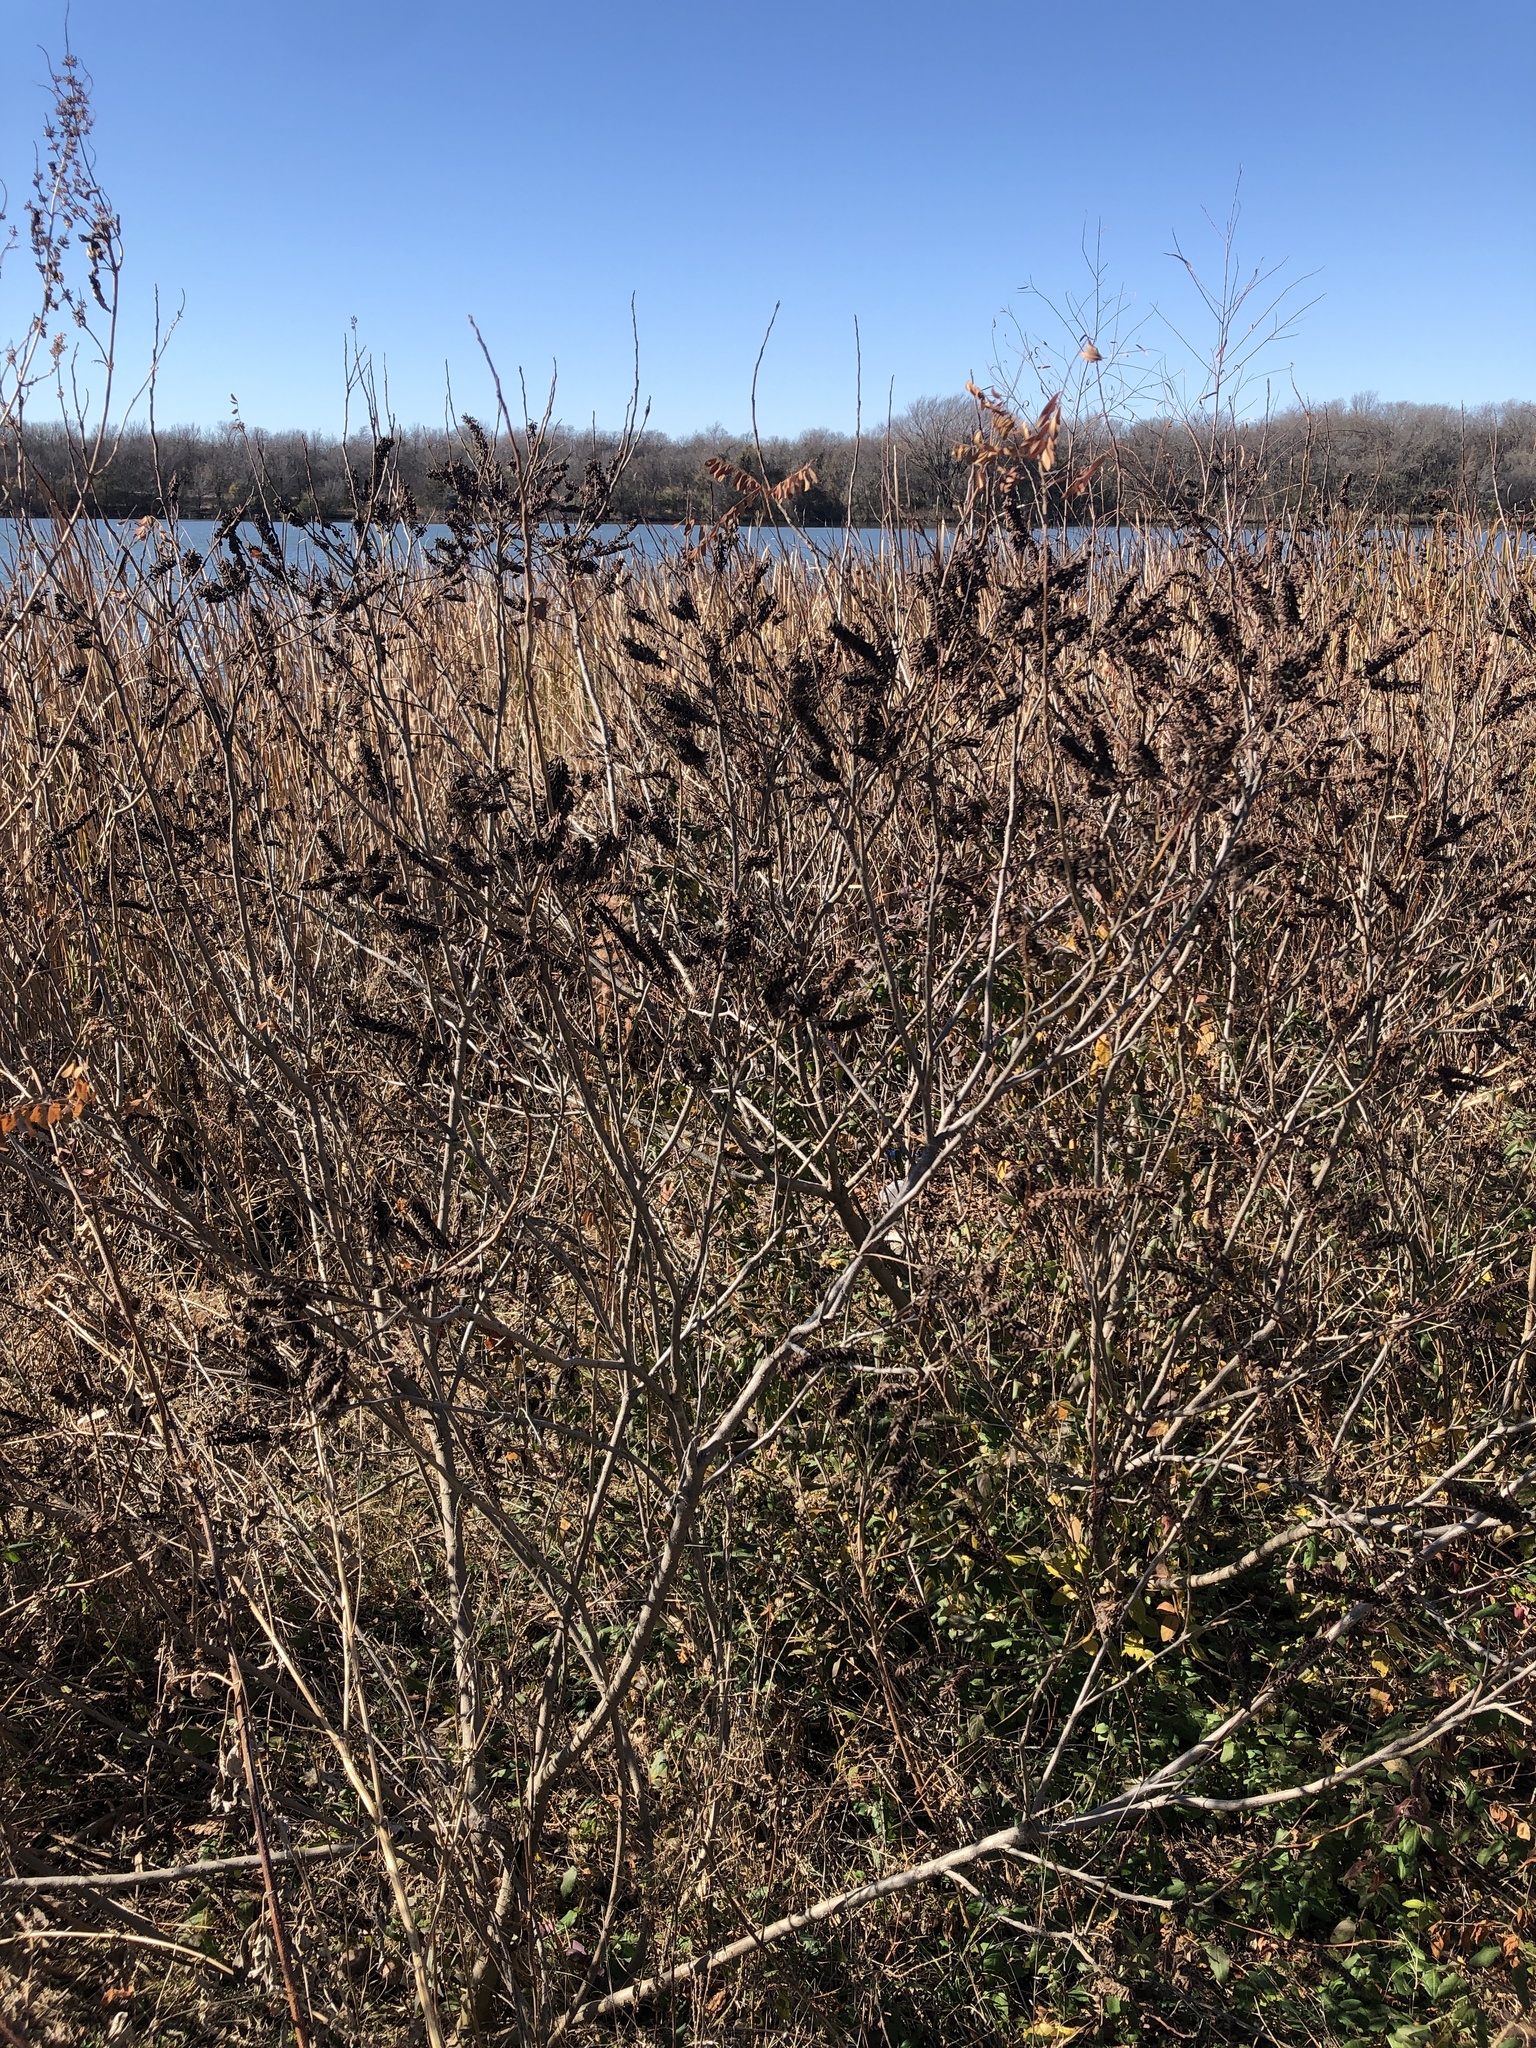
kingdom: Plantae
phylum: Tracheophyta
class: Magnoliopsida
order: Fabales
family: Fabaceae
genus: Amorpha
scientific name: Amorpha fruticosa
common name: False indigo
